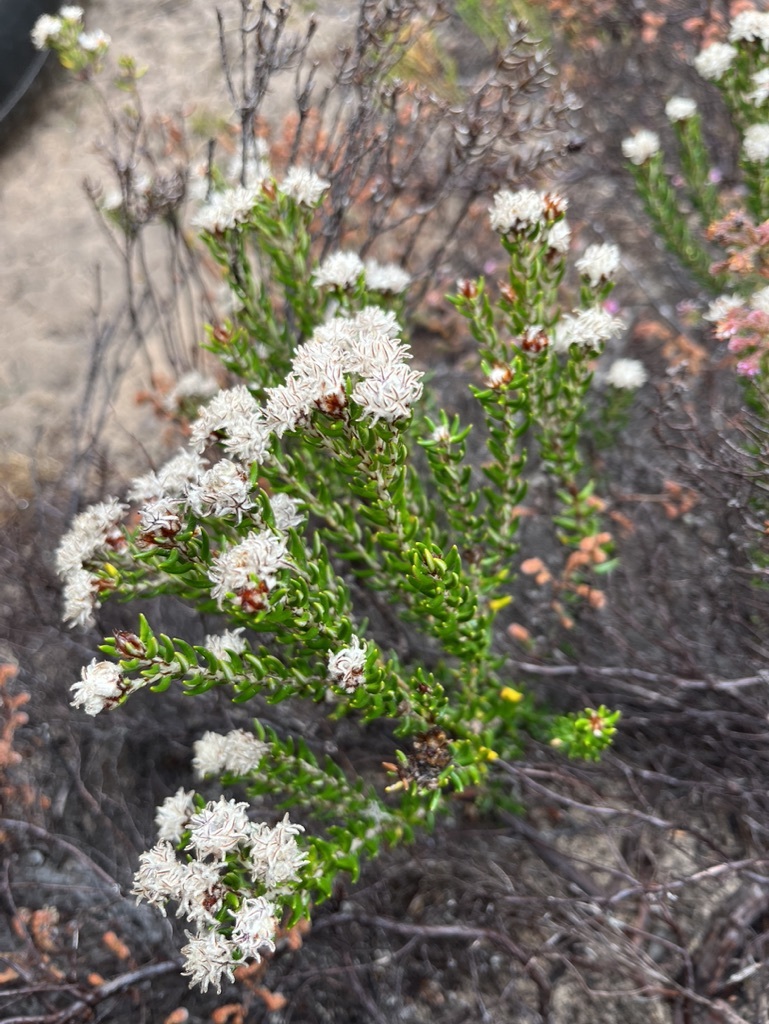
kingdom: Plantae
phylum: Tracheophyta
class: Magnoliopsida
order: Rosales
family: Rhamnaceae
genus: Trichocephalus
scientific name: Trichocephalus stipularis
